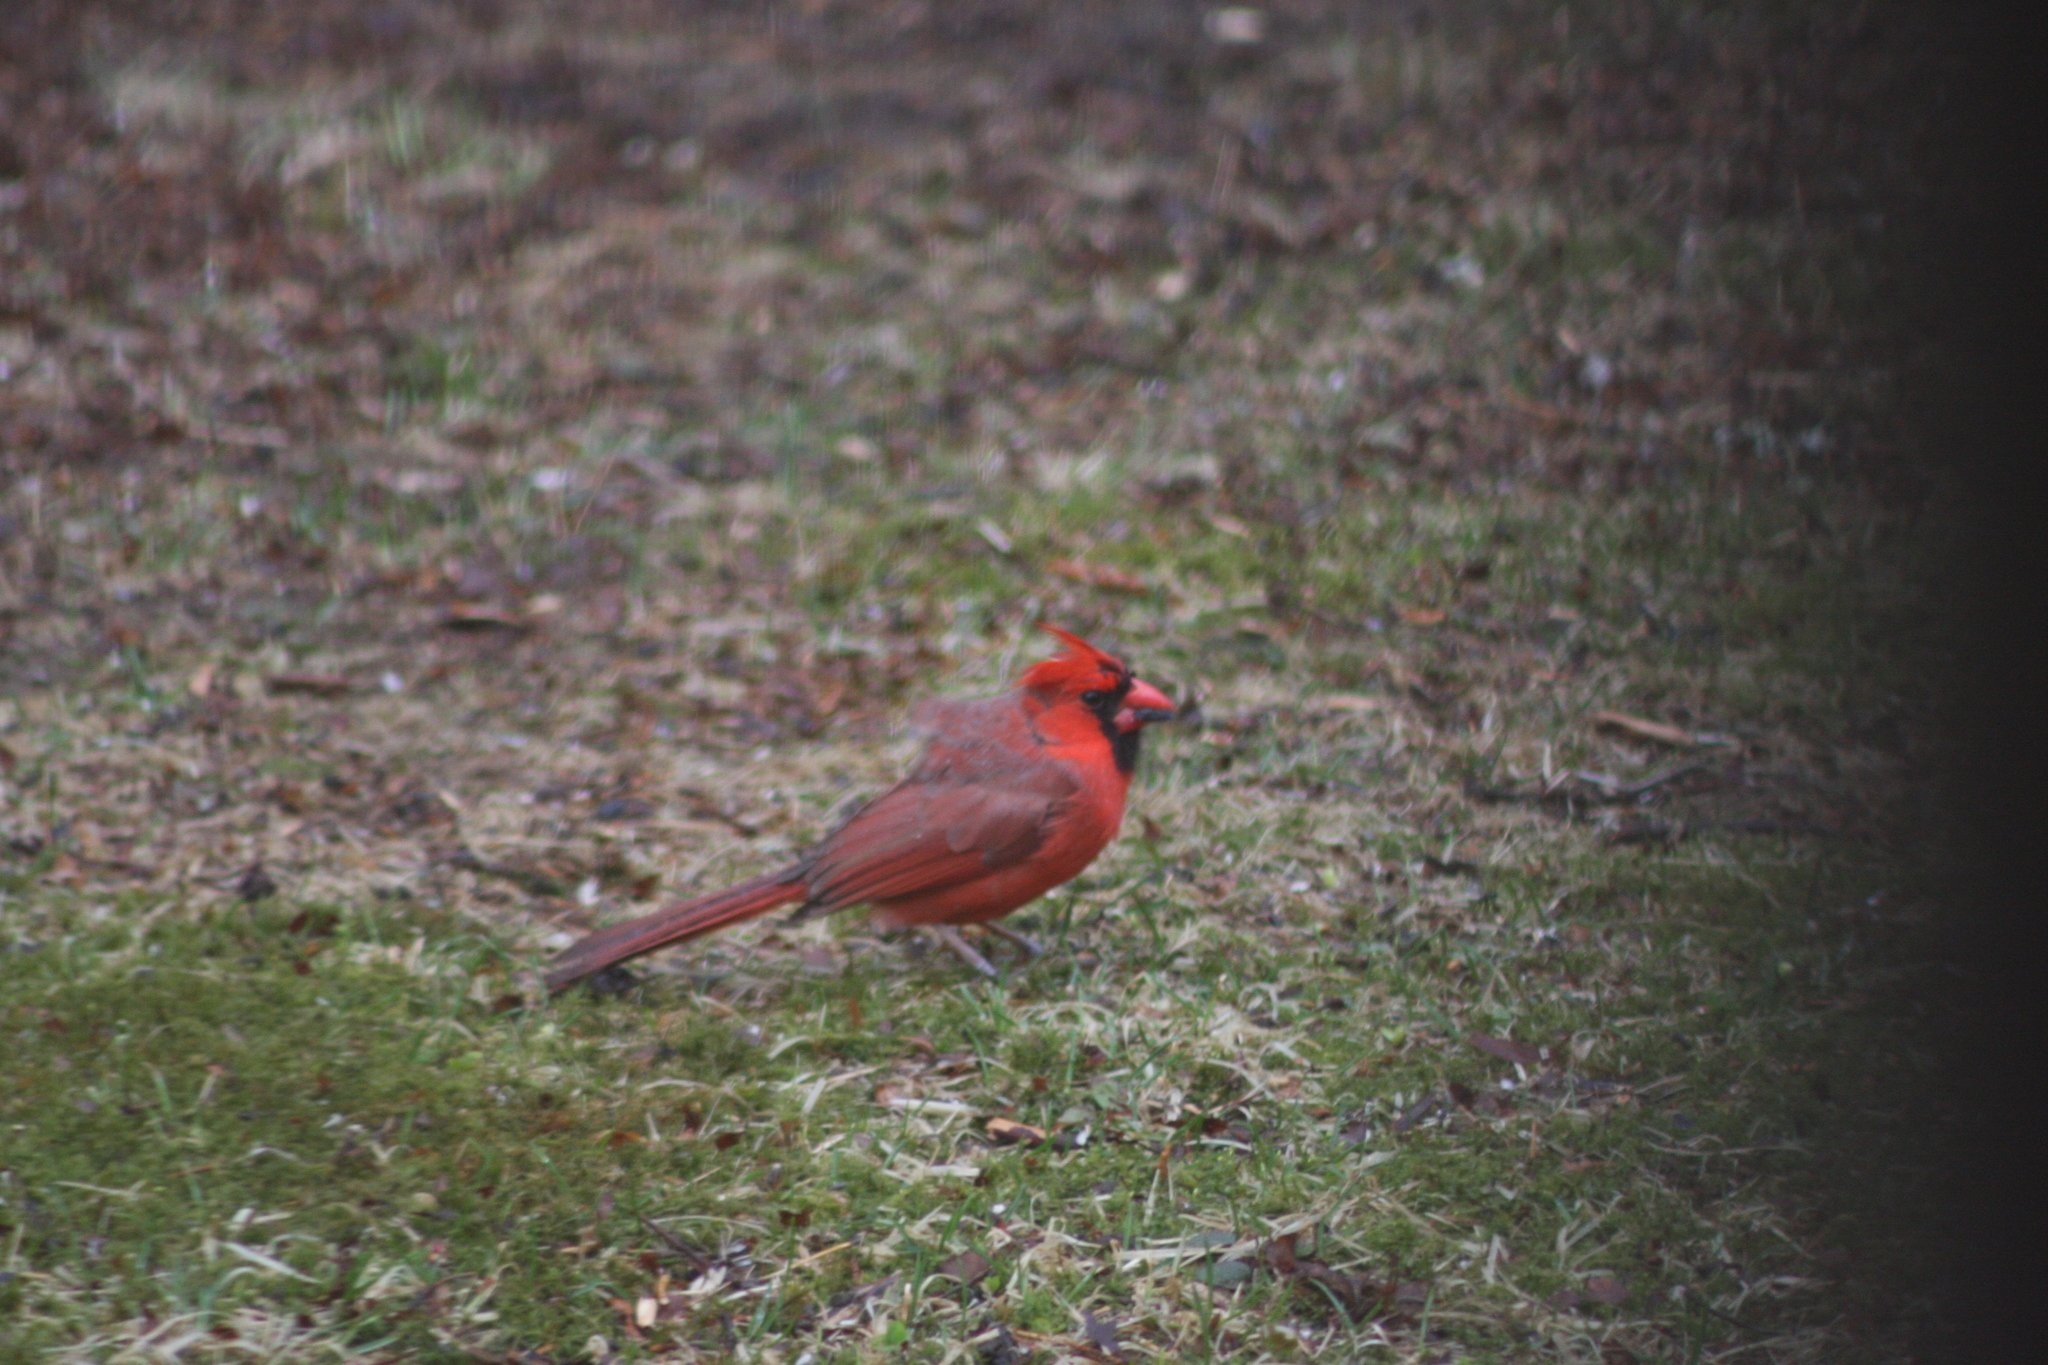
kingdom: Animalia
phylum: Chordata
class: Aves
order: Passeriformes
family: Cardinalidae
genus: Cardinalis
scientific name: Cardinalis cardinalis
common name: Northern cardinal
